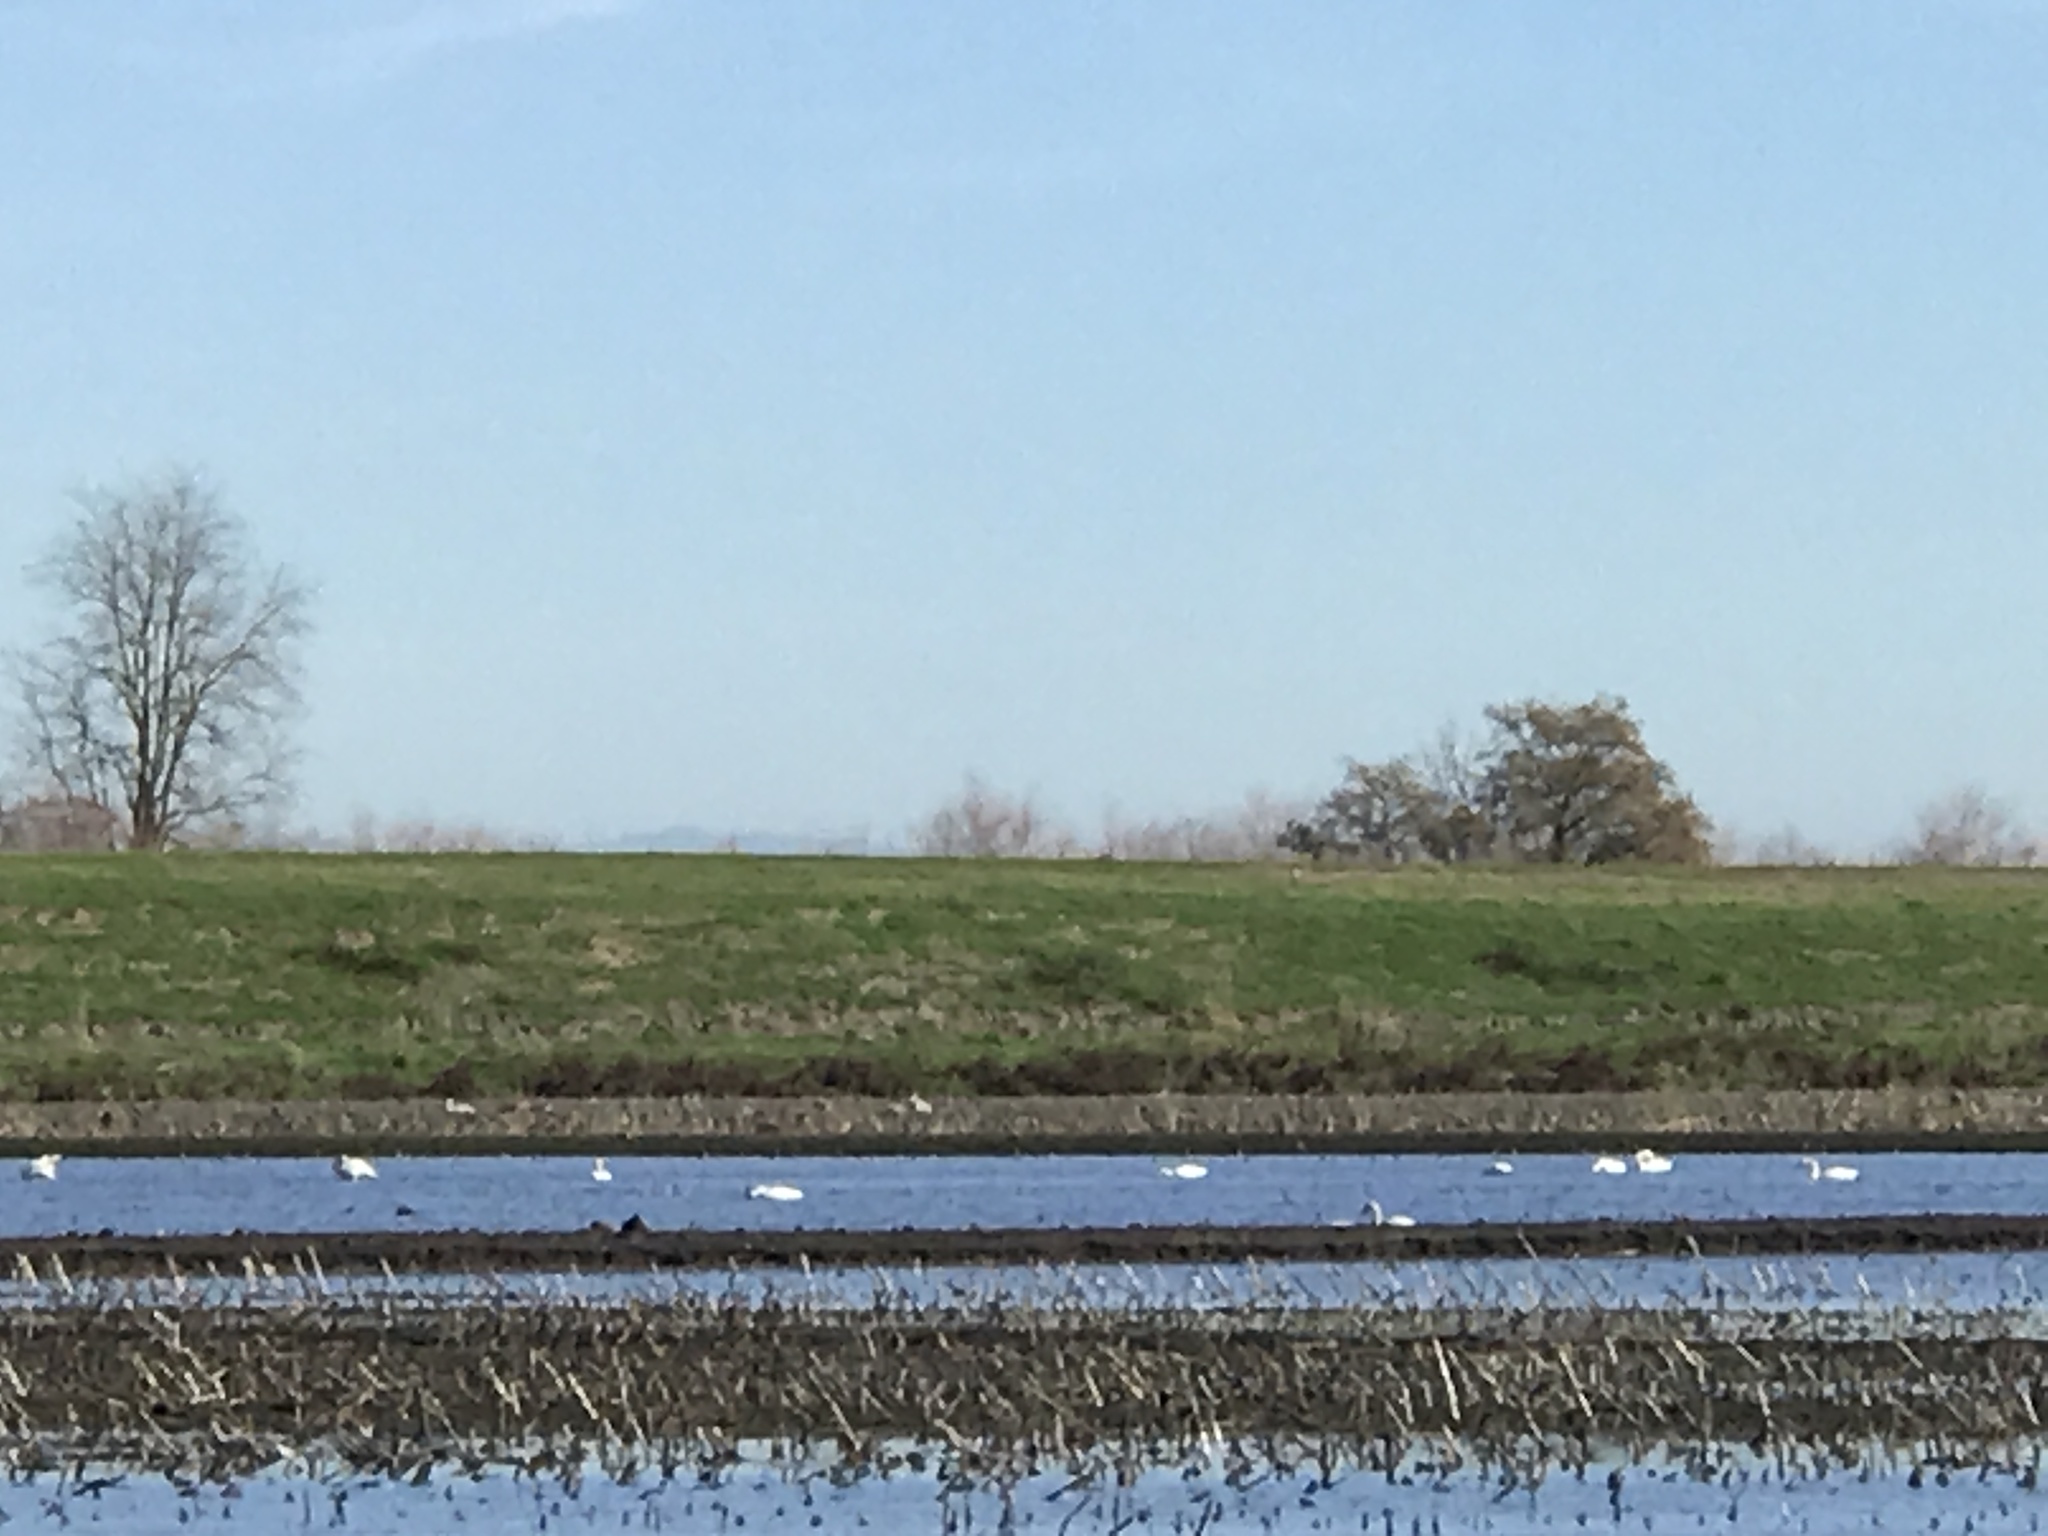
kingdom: Animalia
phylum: Chordata
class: Aves
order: Anseriformes
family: Anatidae
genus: Cygnus
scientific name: Cygnus columbianus
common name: Tundra swan
